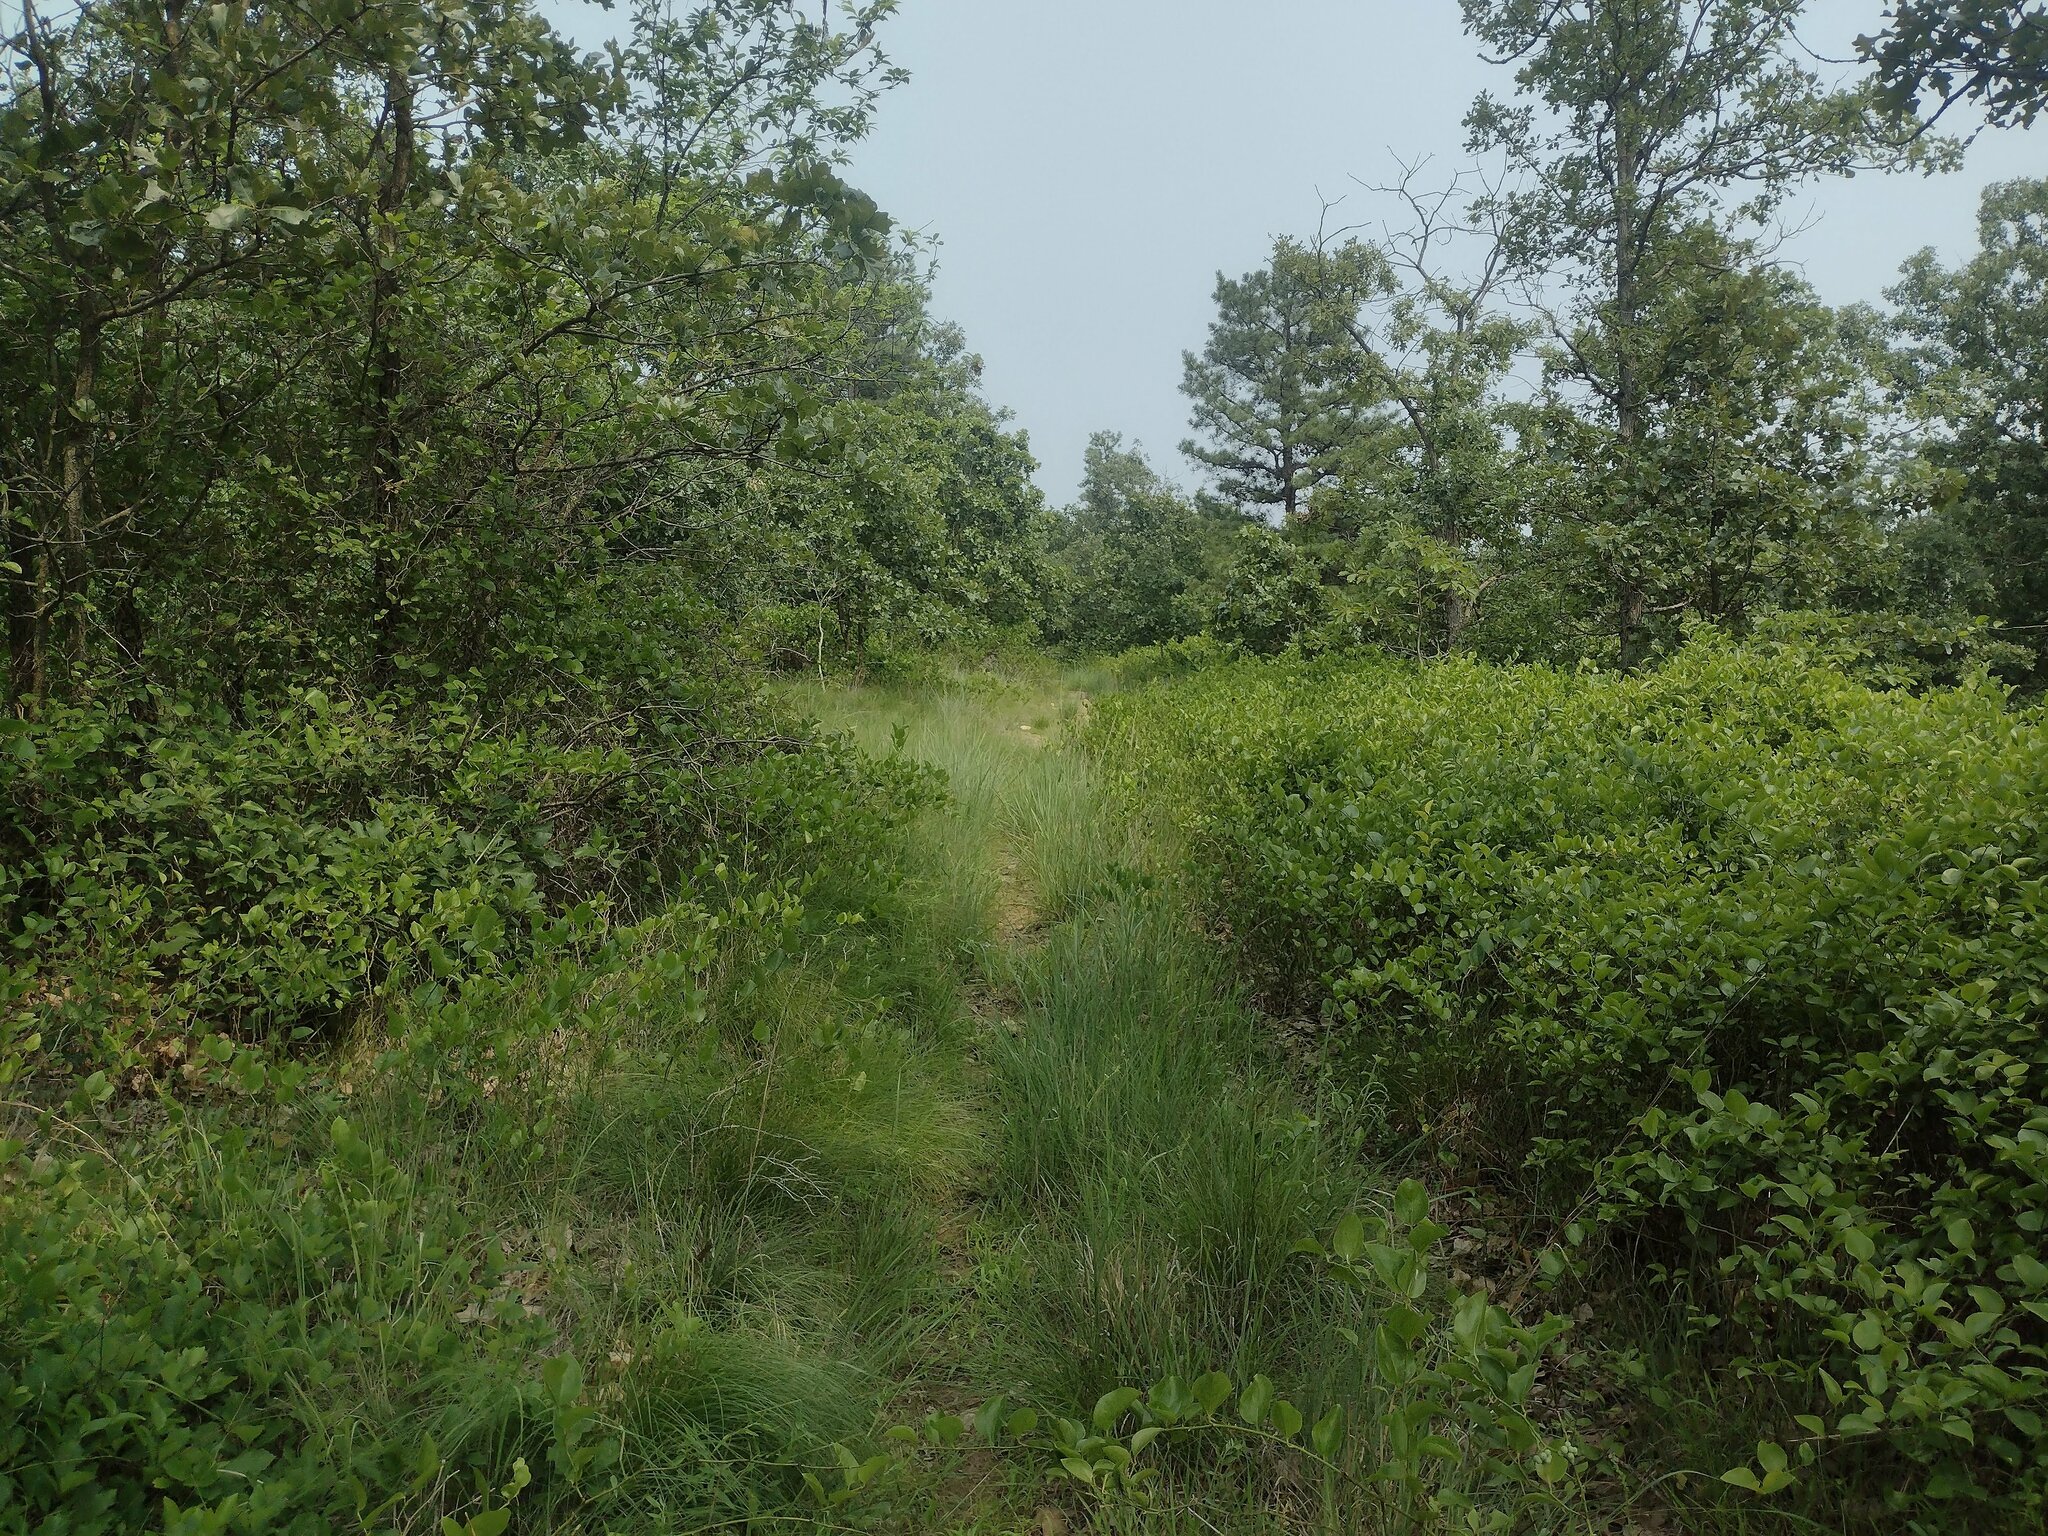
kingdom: Plantae
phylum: Tracheophyta
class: Liliopsida
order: Liliales
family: Smilacaceae
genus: Smilax
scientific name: Smilax rotundifolia
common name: Bullbriar
